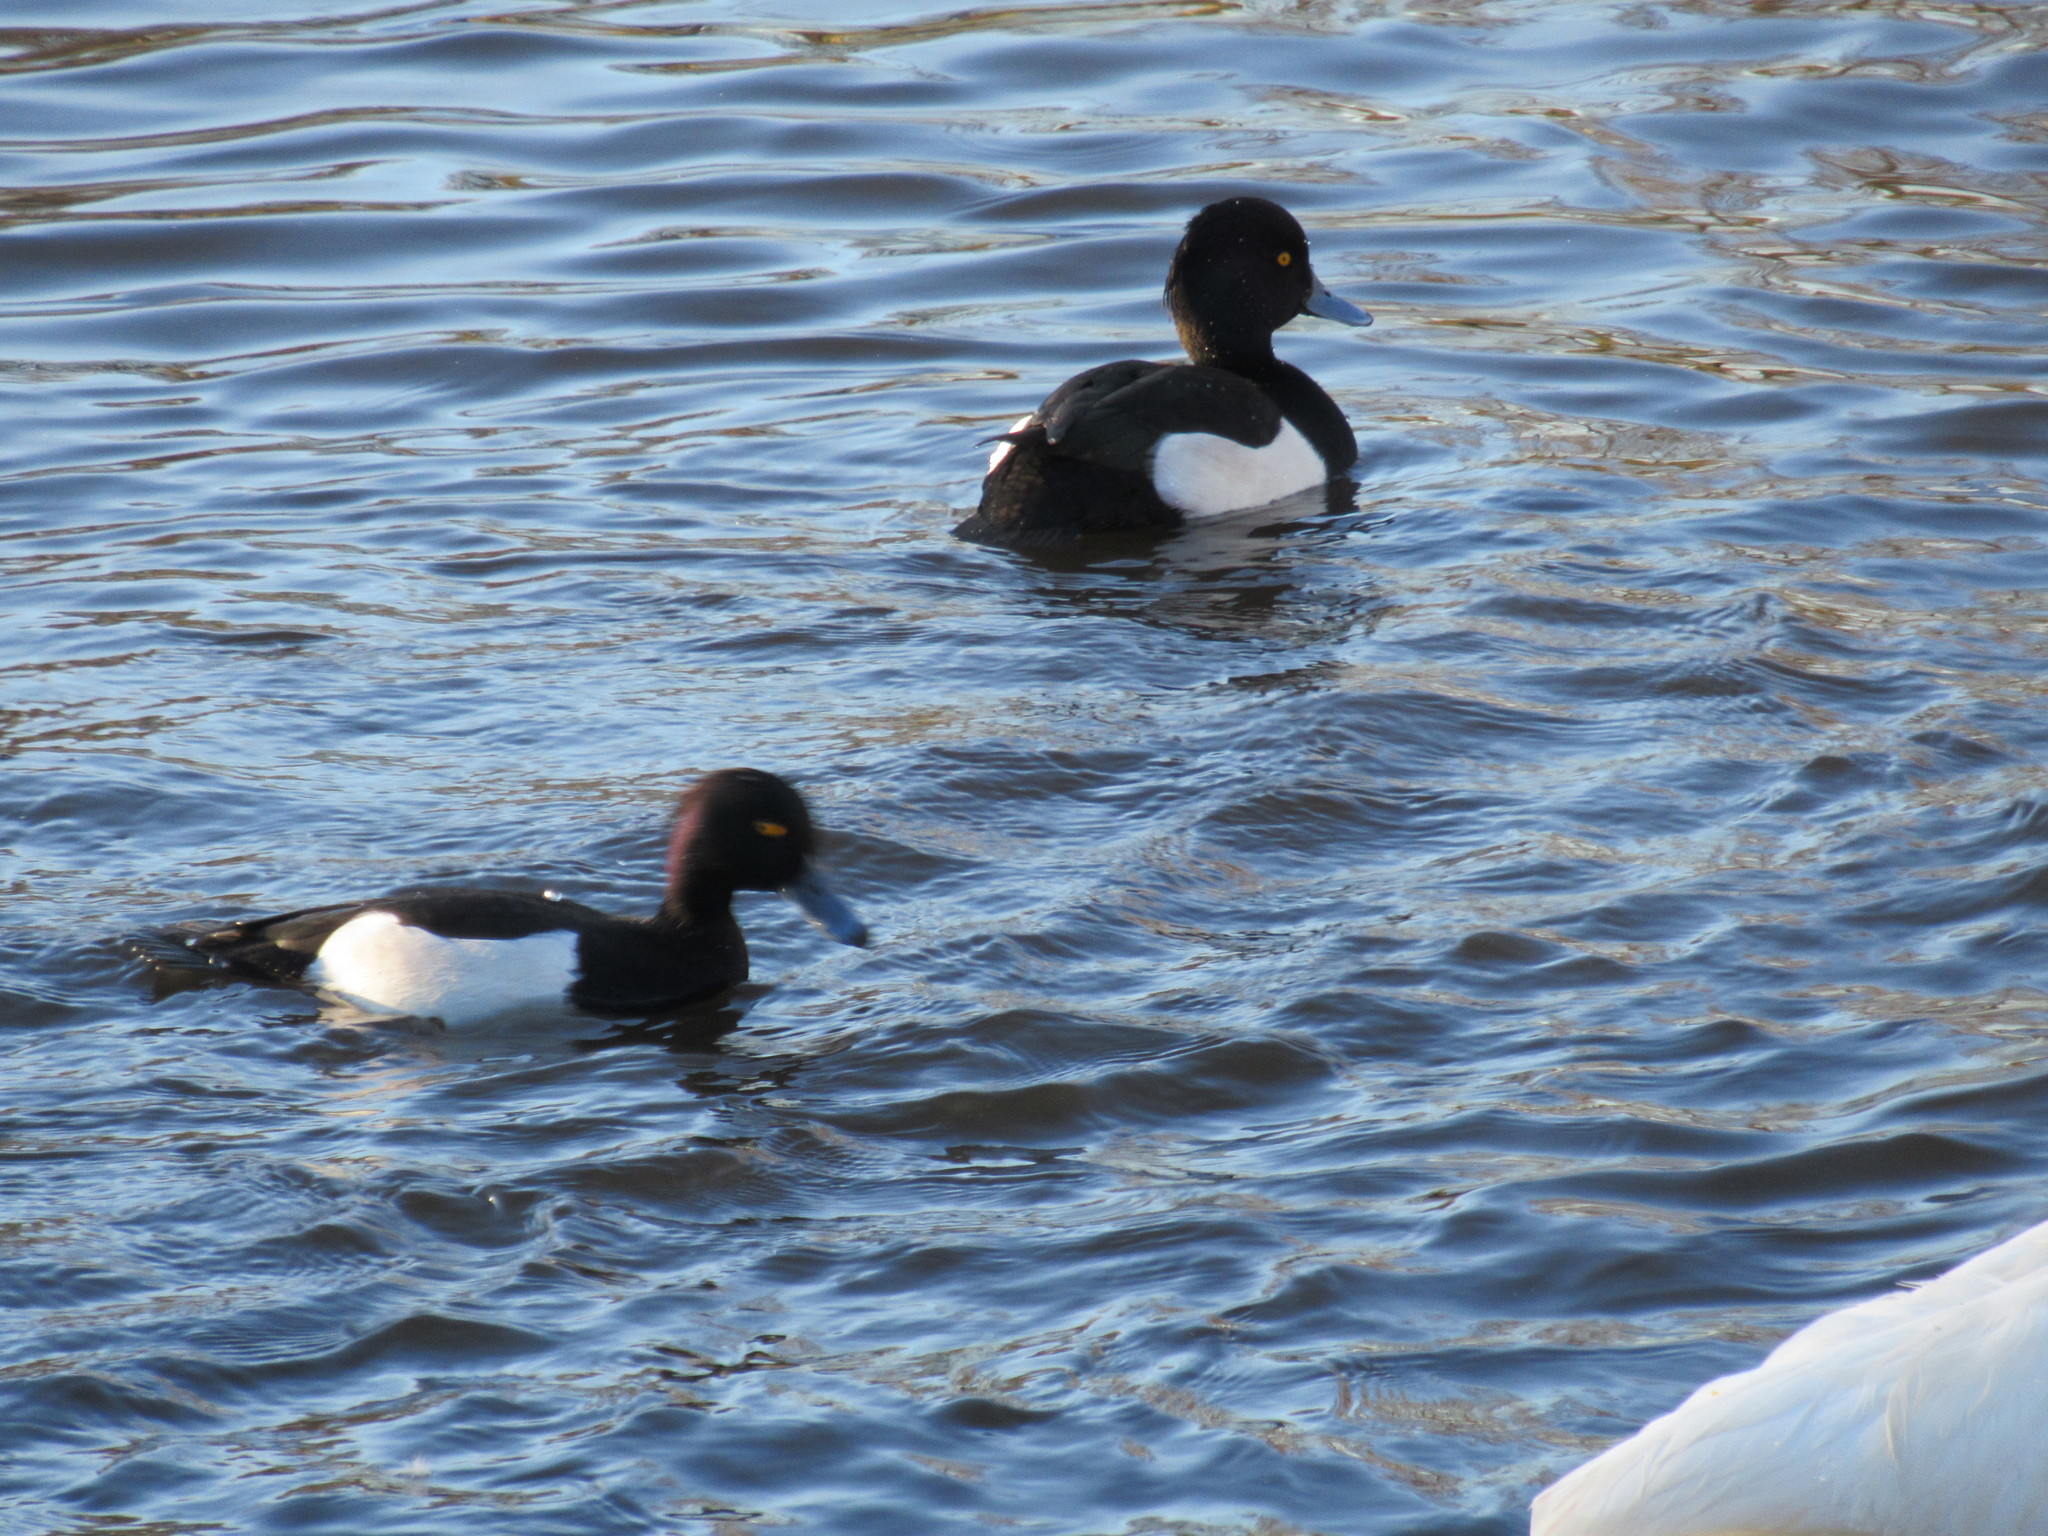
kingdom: Animalia
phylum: Chordata
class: Aves
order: Anseriformes
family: Anatidae
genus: Aythya
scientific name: Aythya fuligula
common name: Tufted duck
